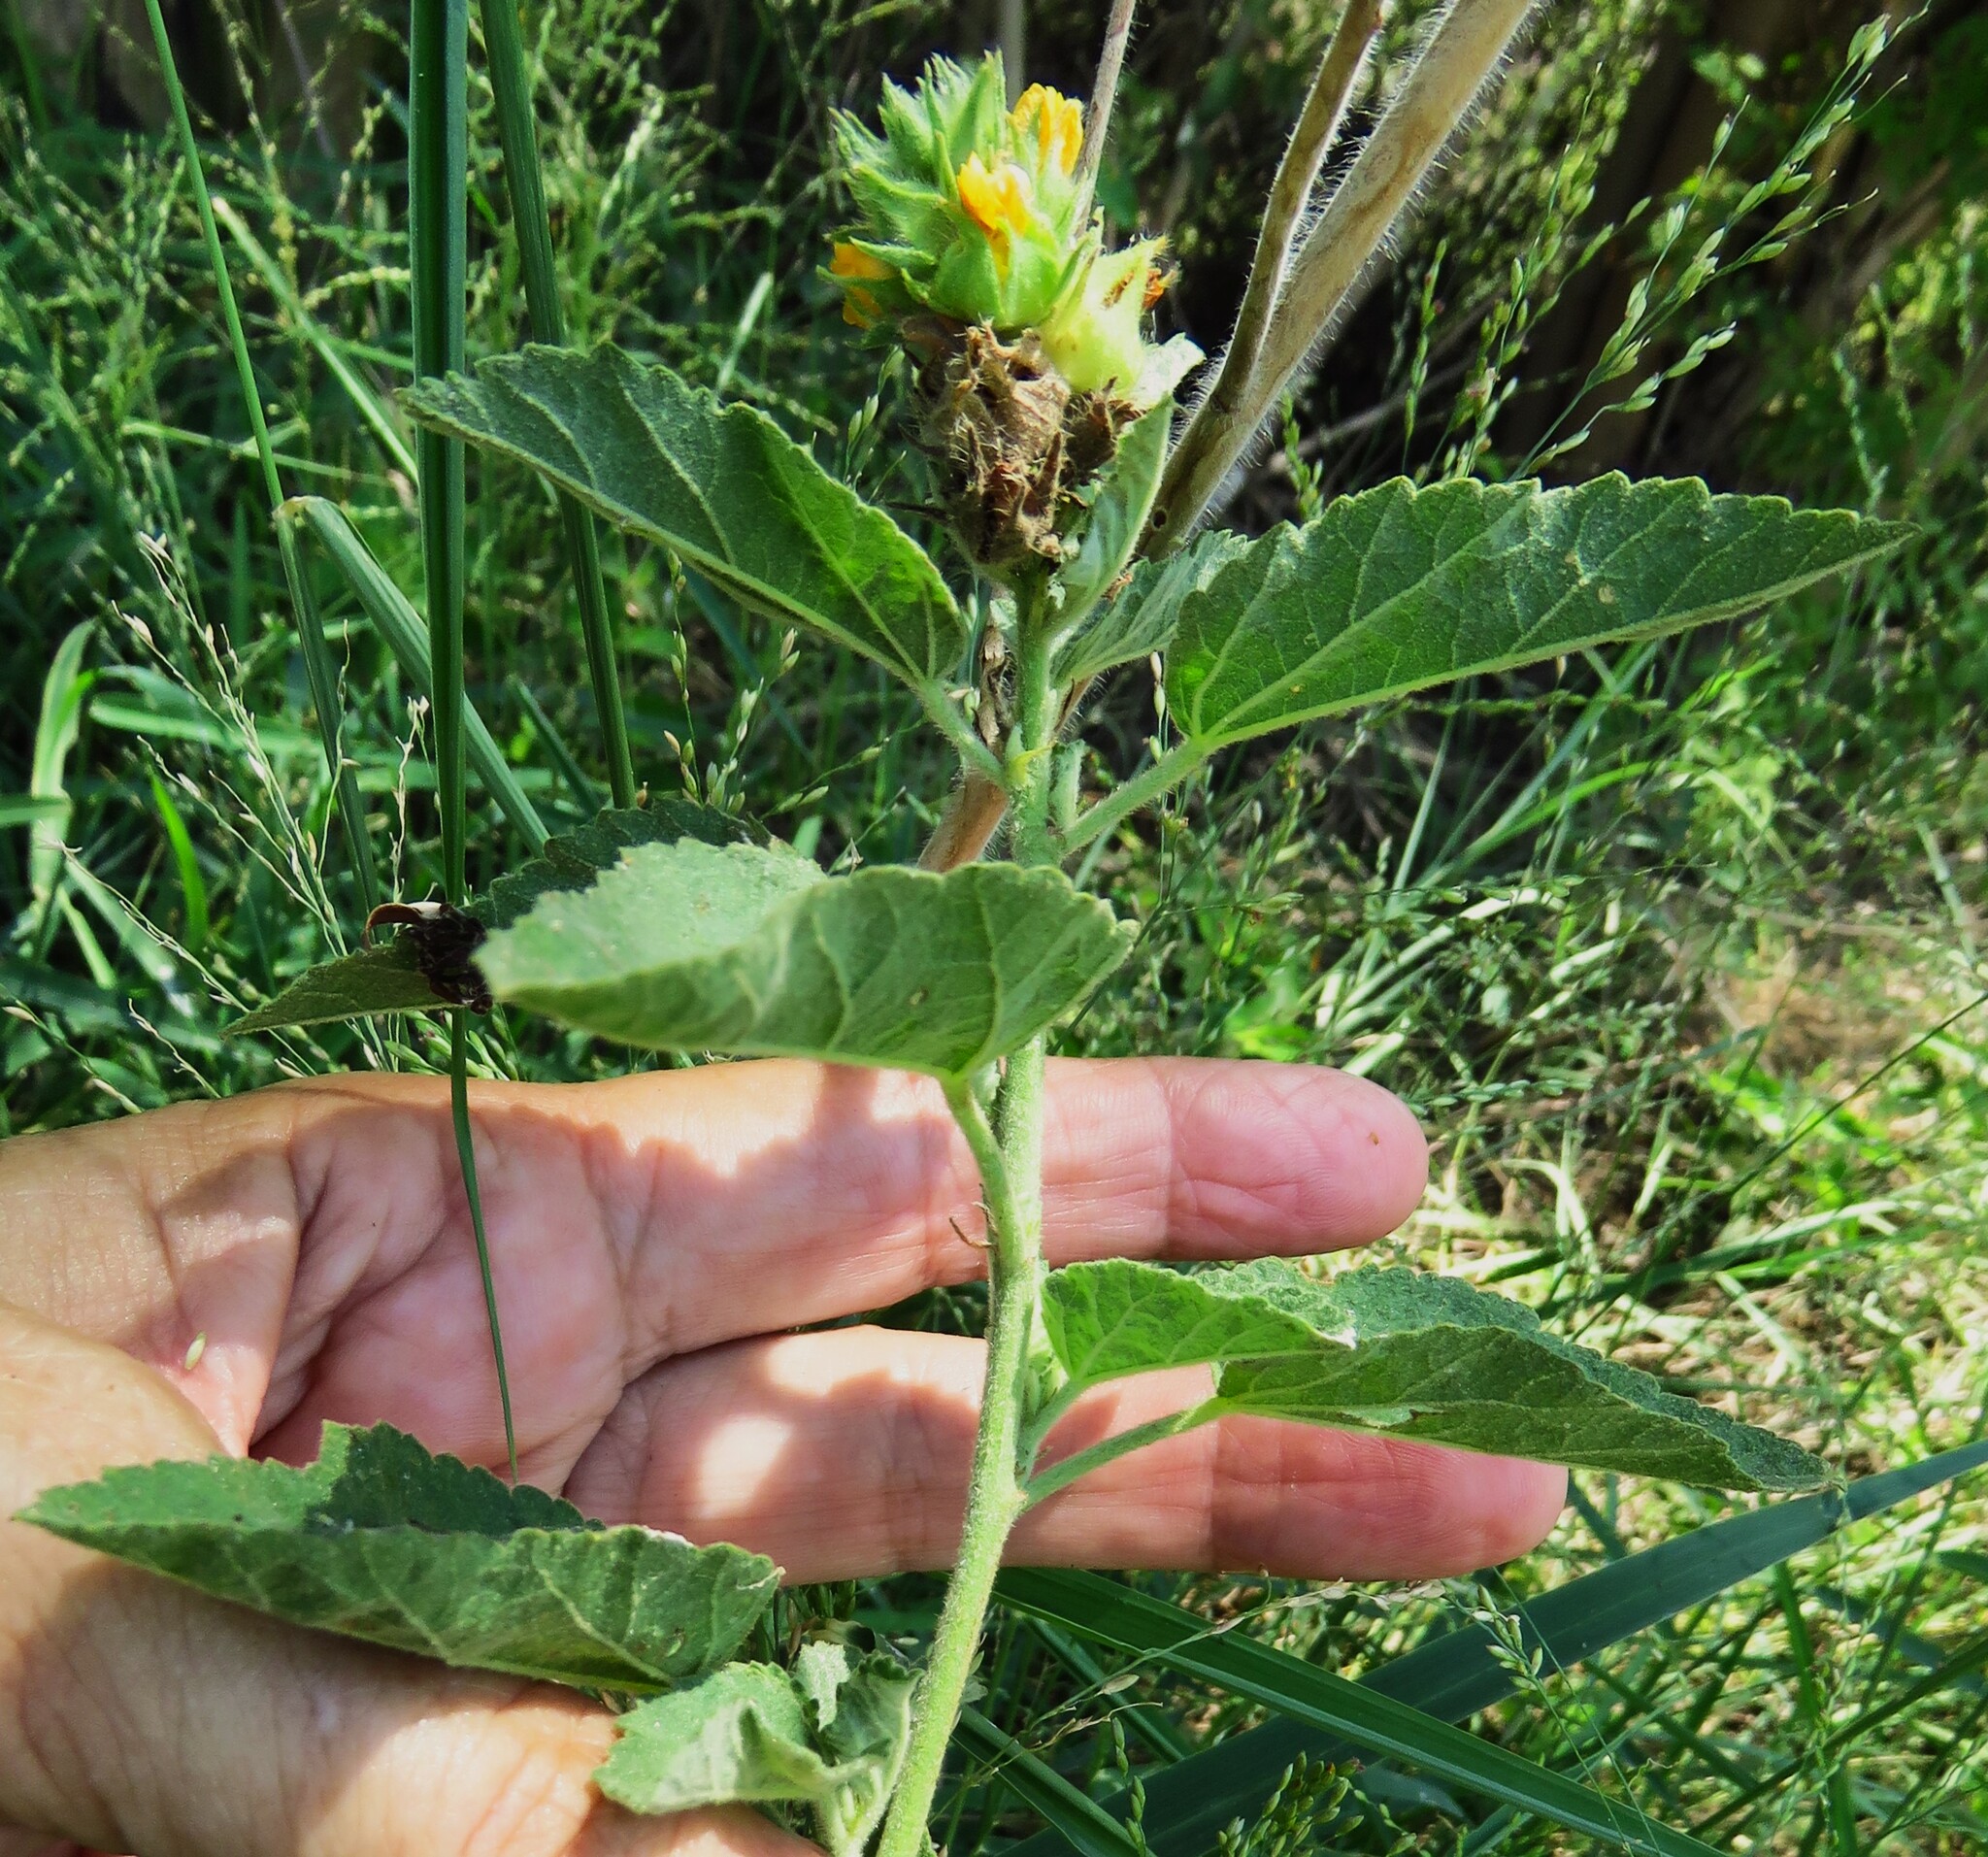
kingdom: Plantae
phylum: Tracheophyta
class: Magnoliopsida
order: Malvales
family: Malvaceae
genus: Malvastrum
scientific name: Malvastrum americanum
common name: Spiked malvastrum
